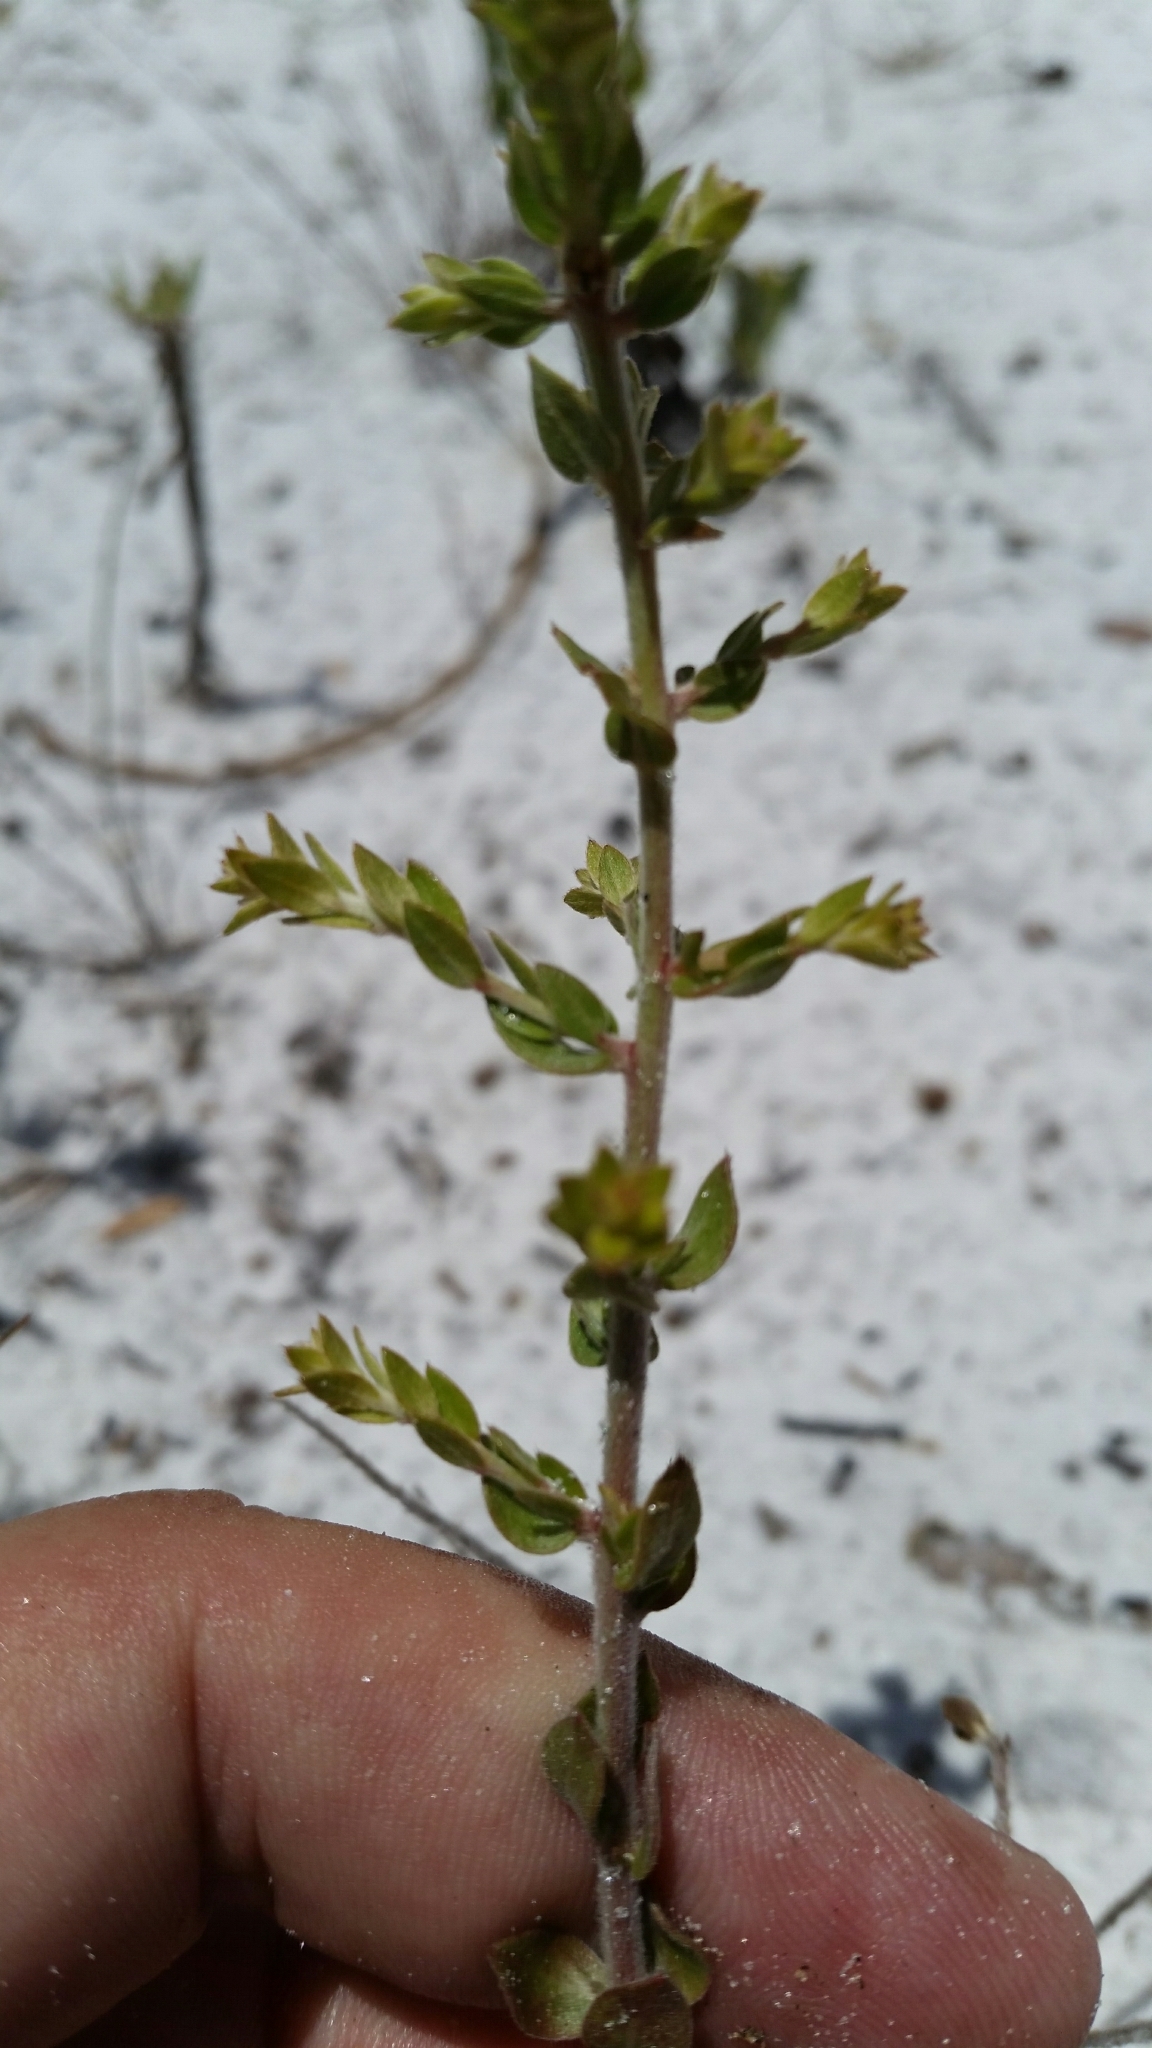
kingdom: Plantae
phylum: Tracheophyta
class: Magnoliopsida
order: Malvales
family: Cistaceae
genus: Lechea
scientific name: Lechea cernua
